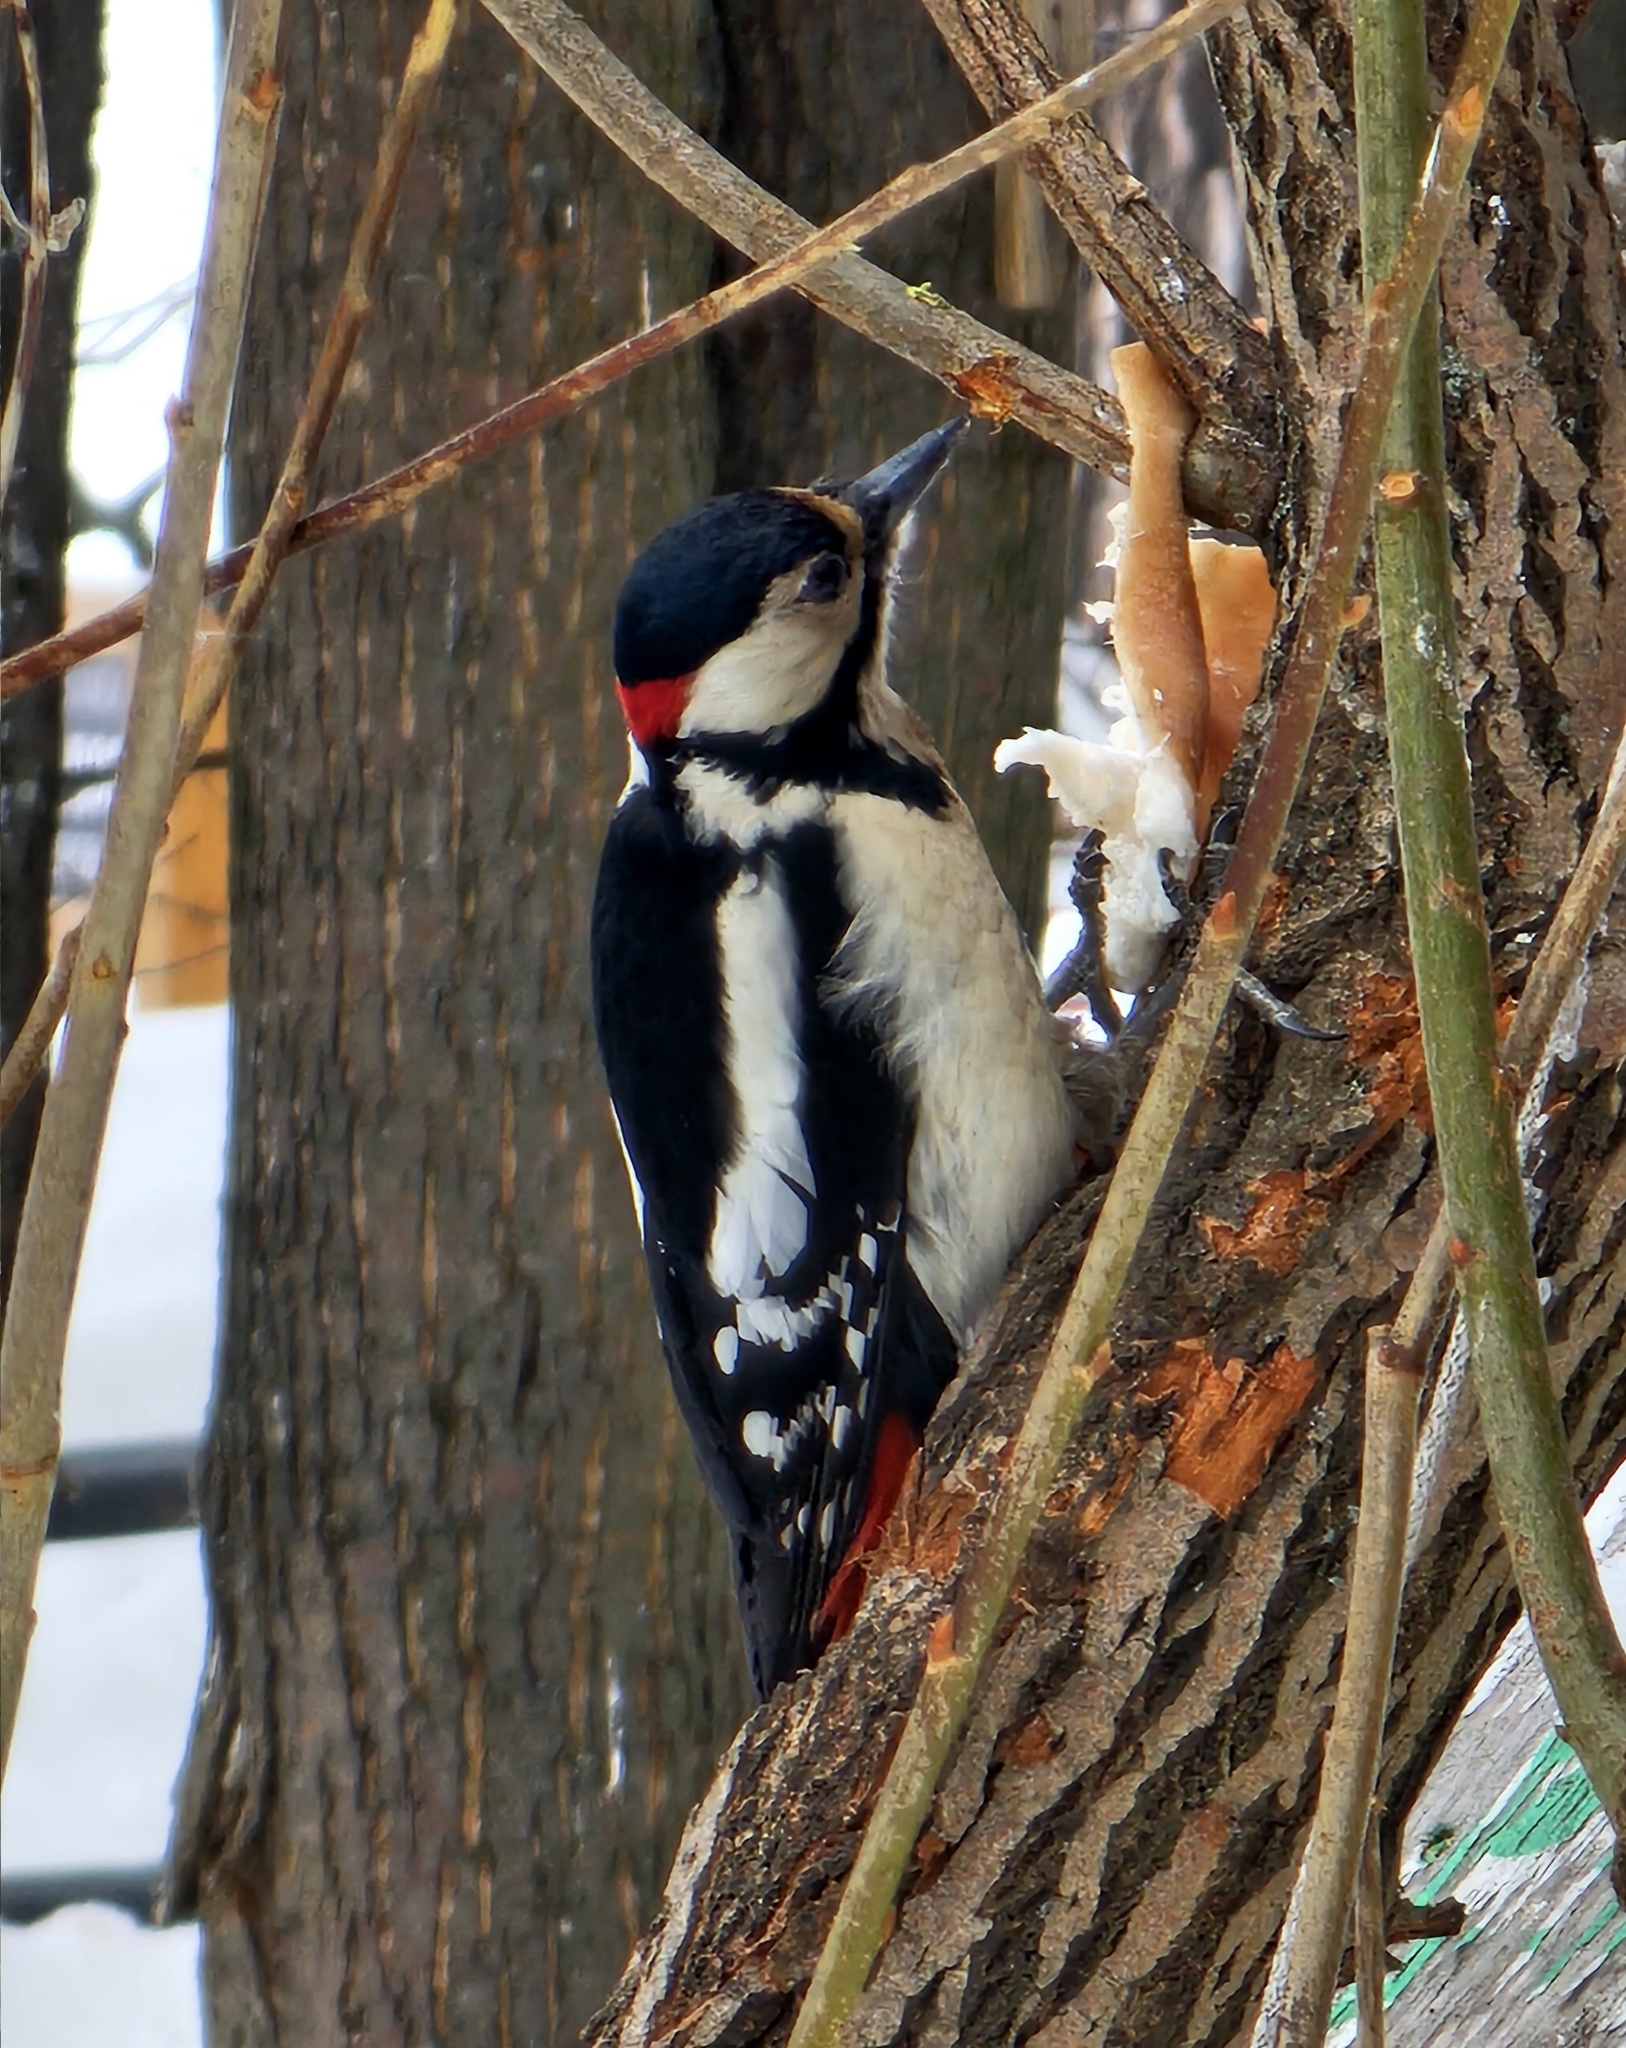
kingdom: Animalia
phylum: Chordata
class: Aves
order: Piciformes
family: Picidae
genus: Dendrocopos
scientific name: Dendrocopos major
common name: Great spotted woodpecker
